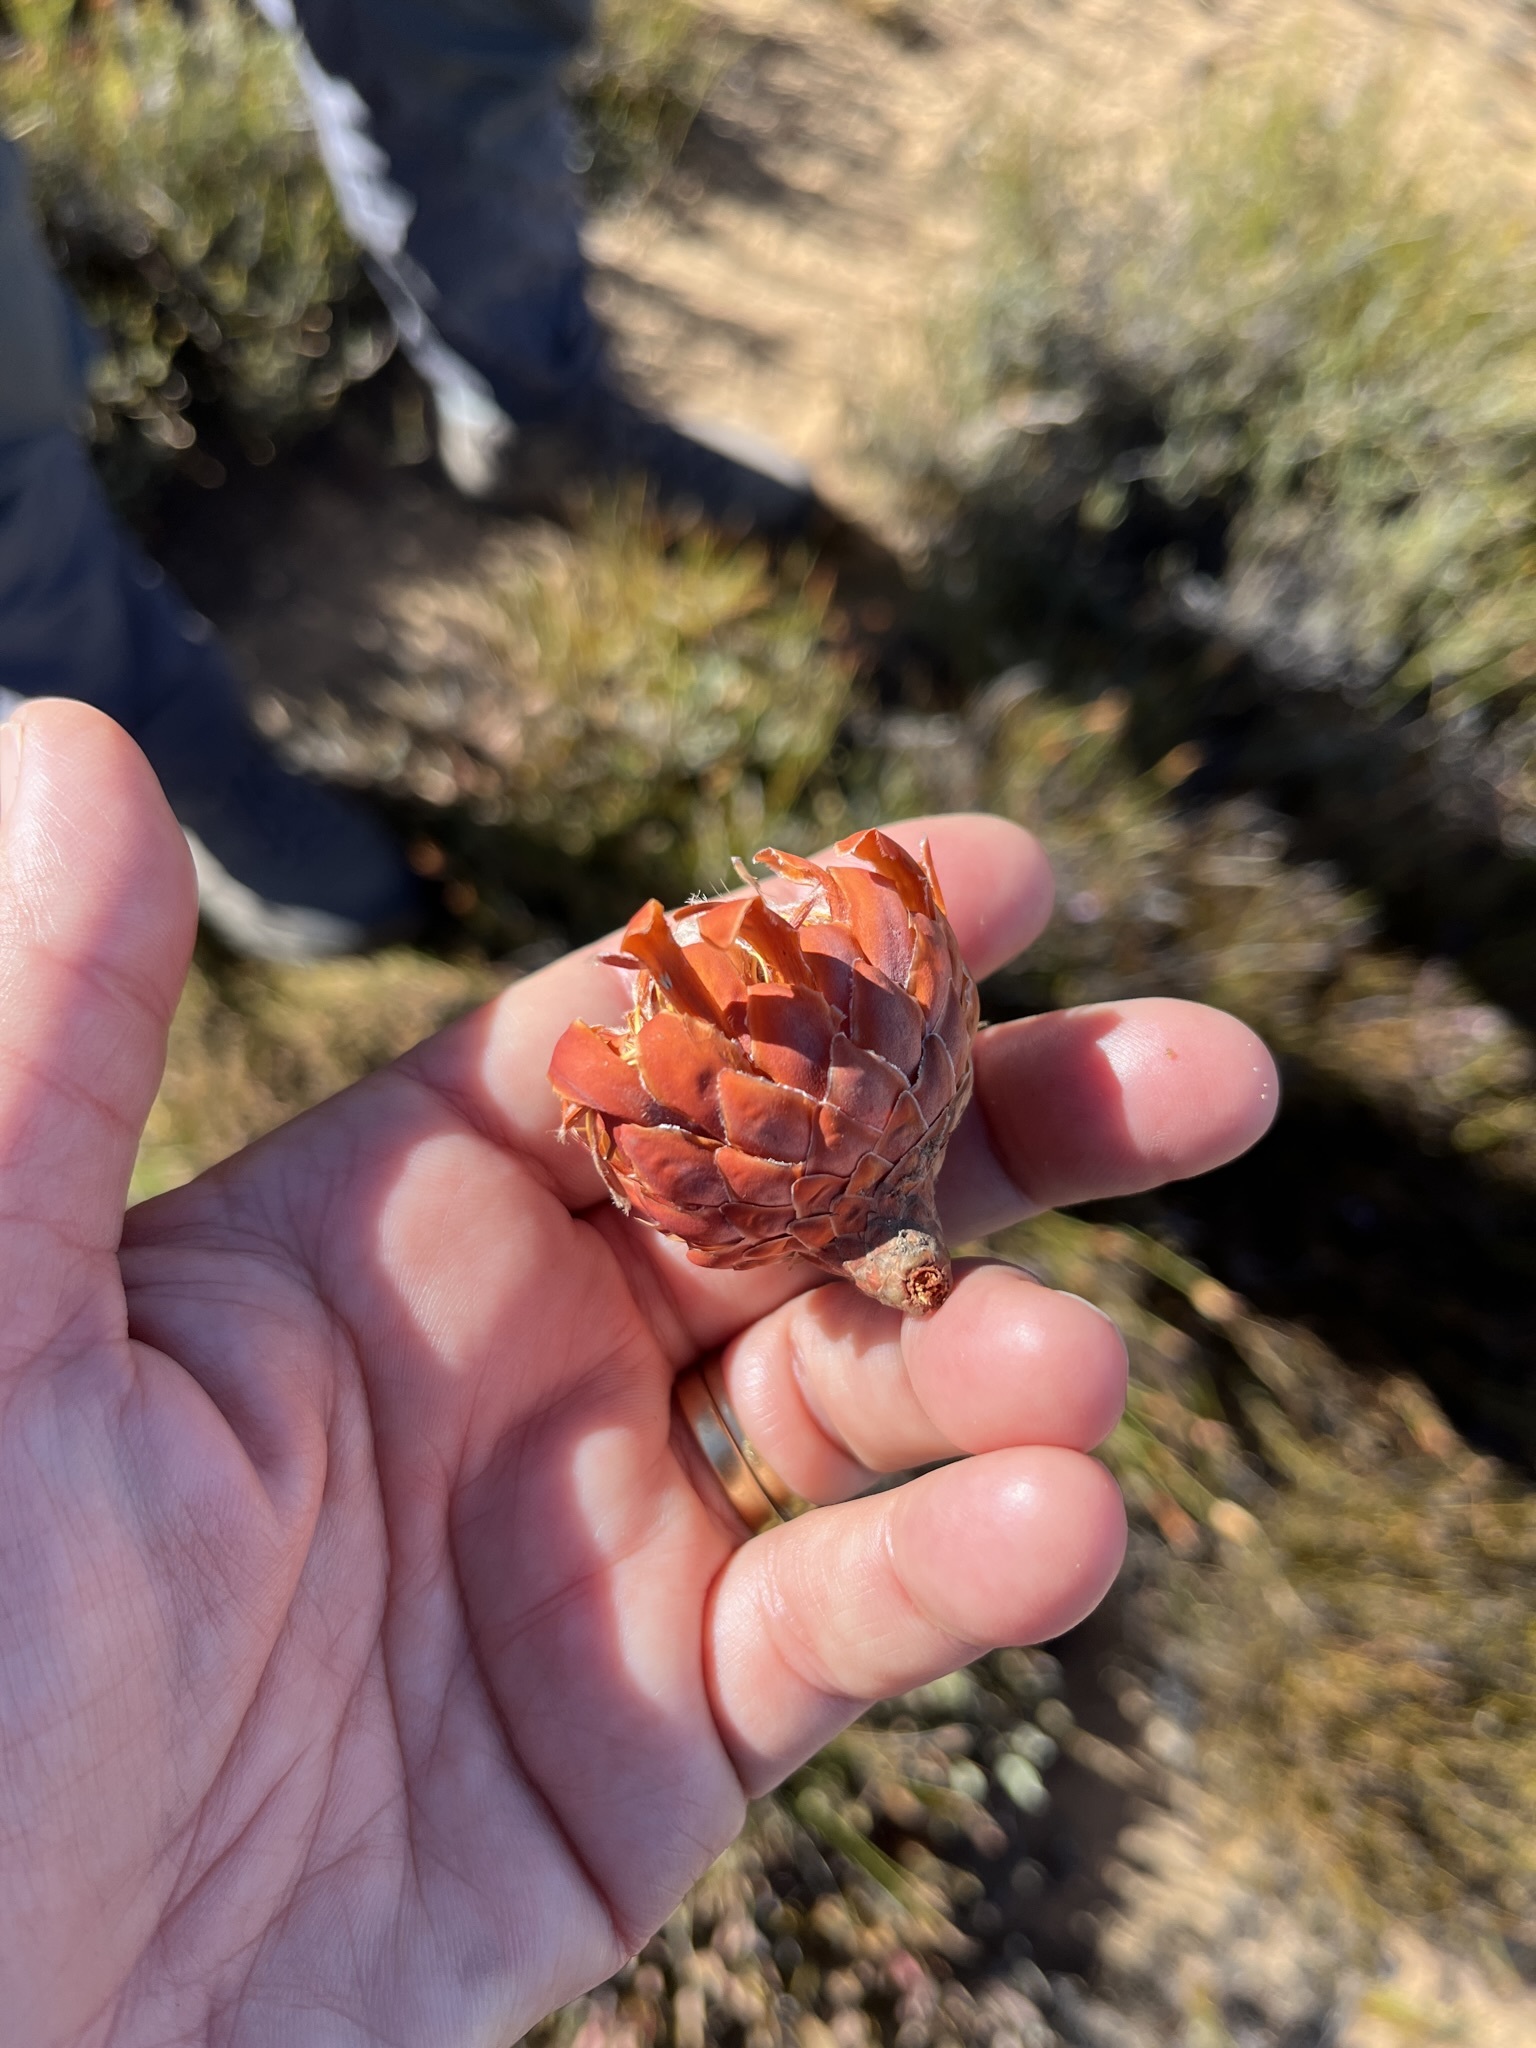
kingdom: Plantae
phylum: Tracheophyta
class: Magnoliopsida
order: Proteales
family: Proteaceae
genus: Protea
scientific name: Protea laevis
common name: Smooth-leaf sugarbush
